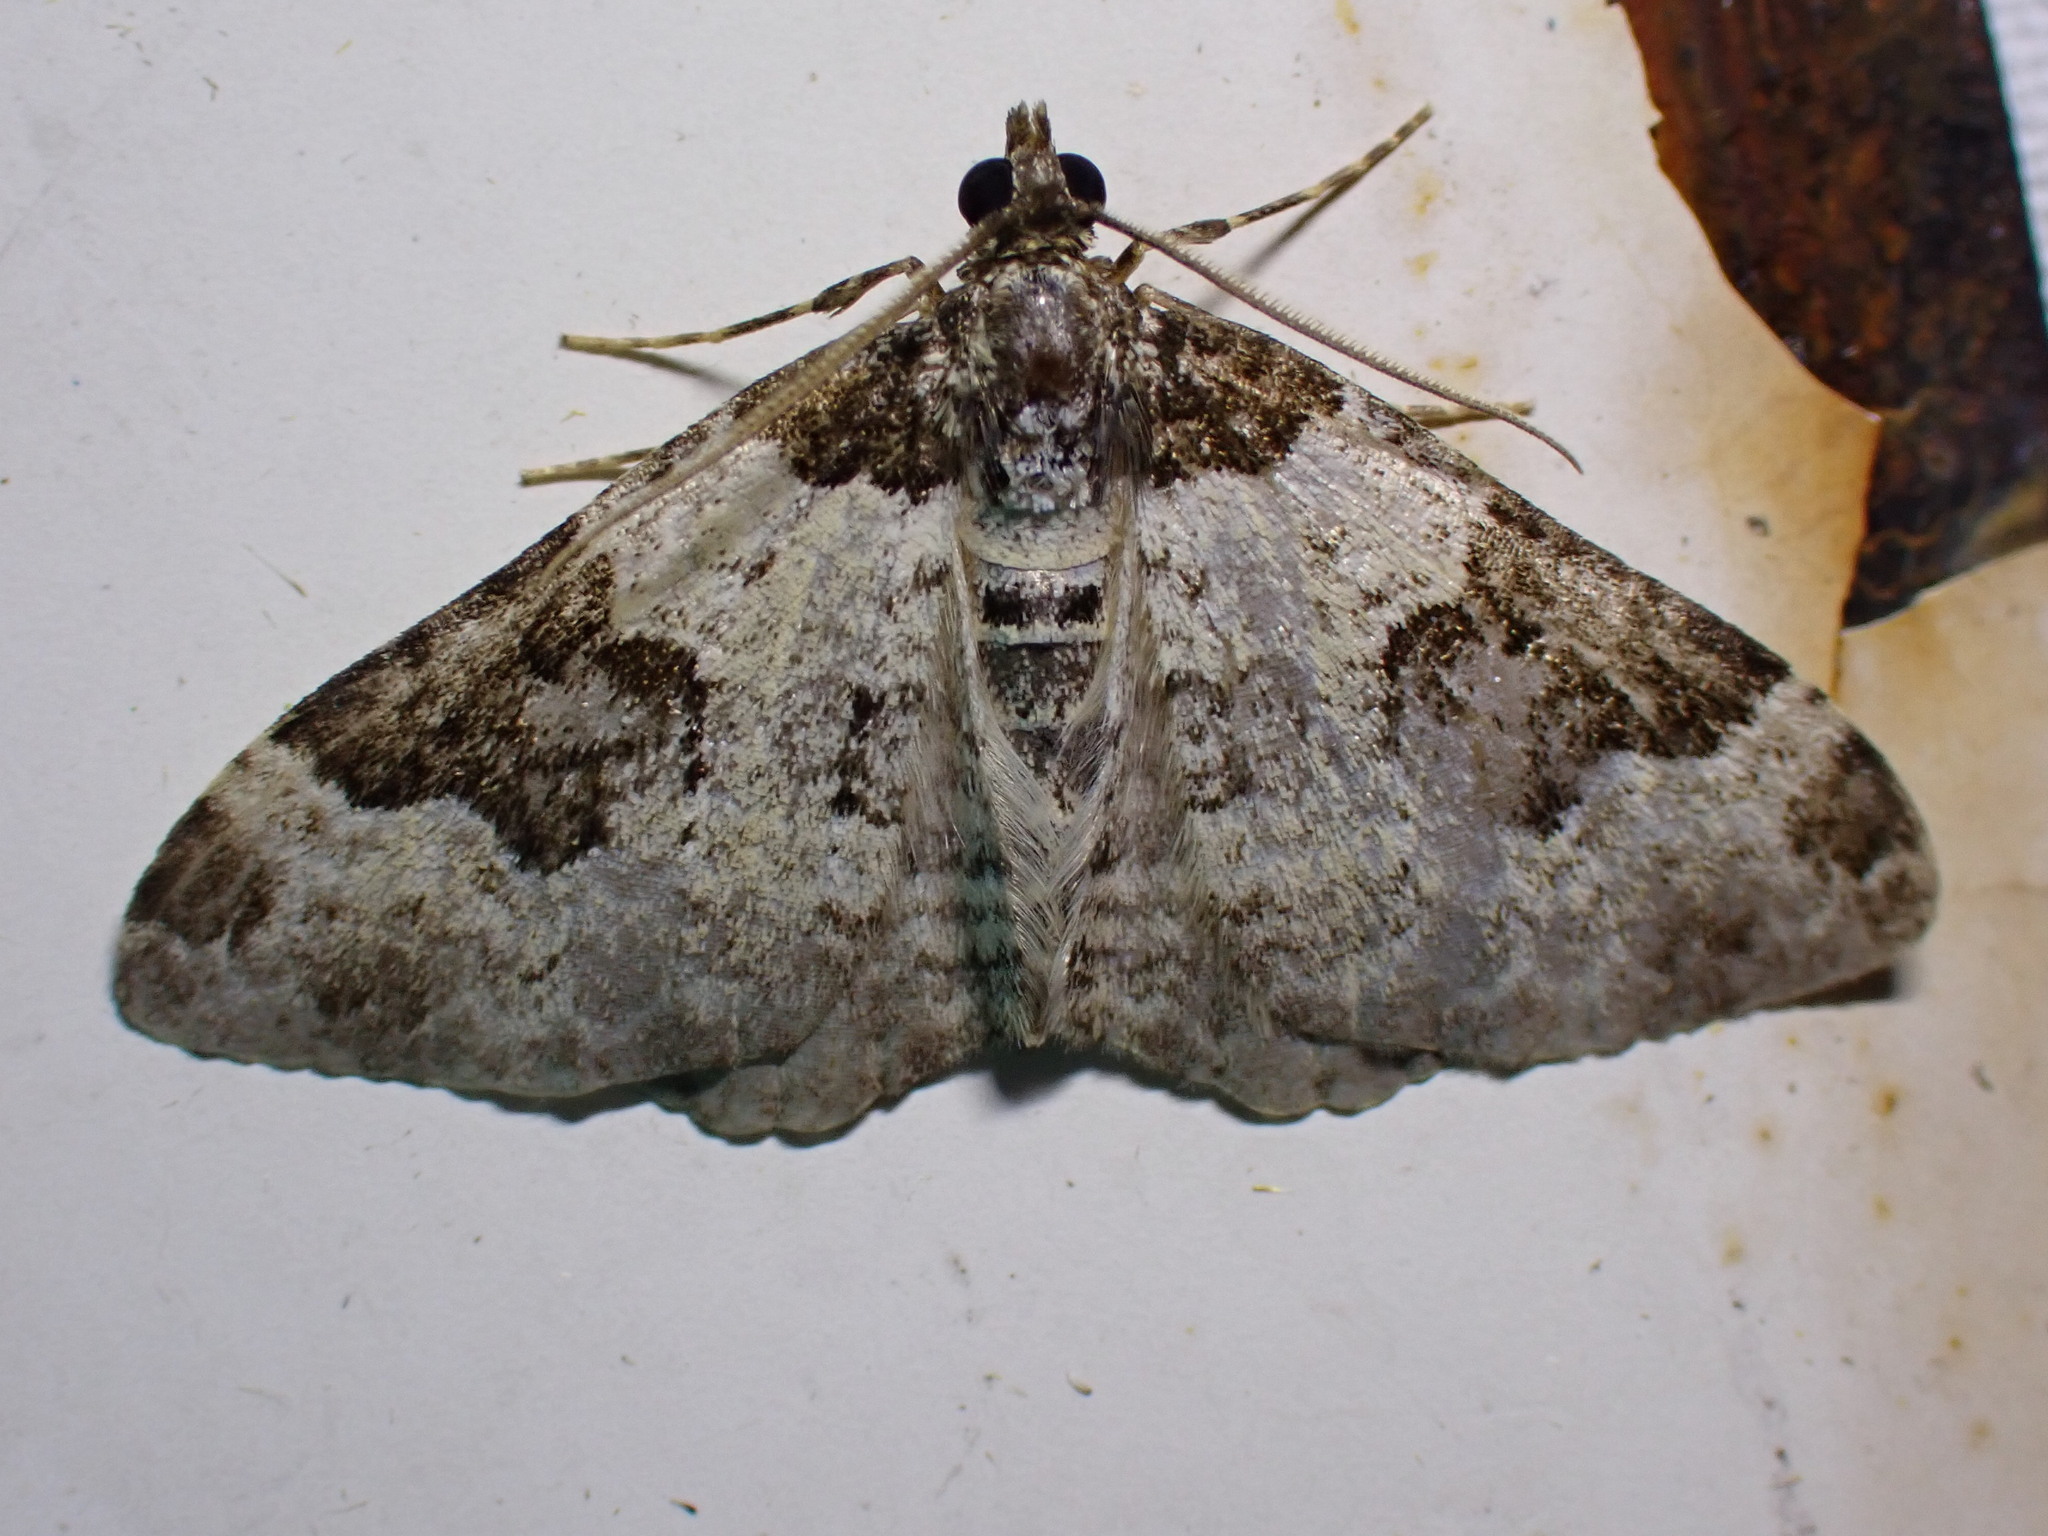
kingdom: Animalia
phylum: Arthropoda
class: Insecta
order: Lepidoptera
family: Geometridae
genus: Xanthorhoe
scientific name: Xanthorhoe fluctuata
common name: Garden carpet
